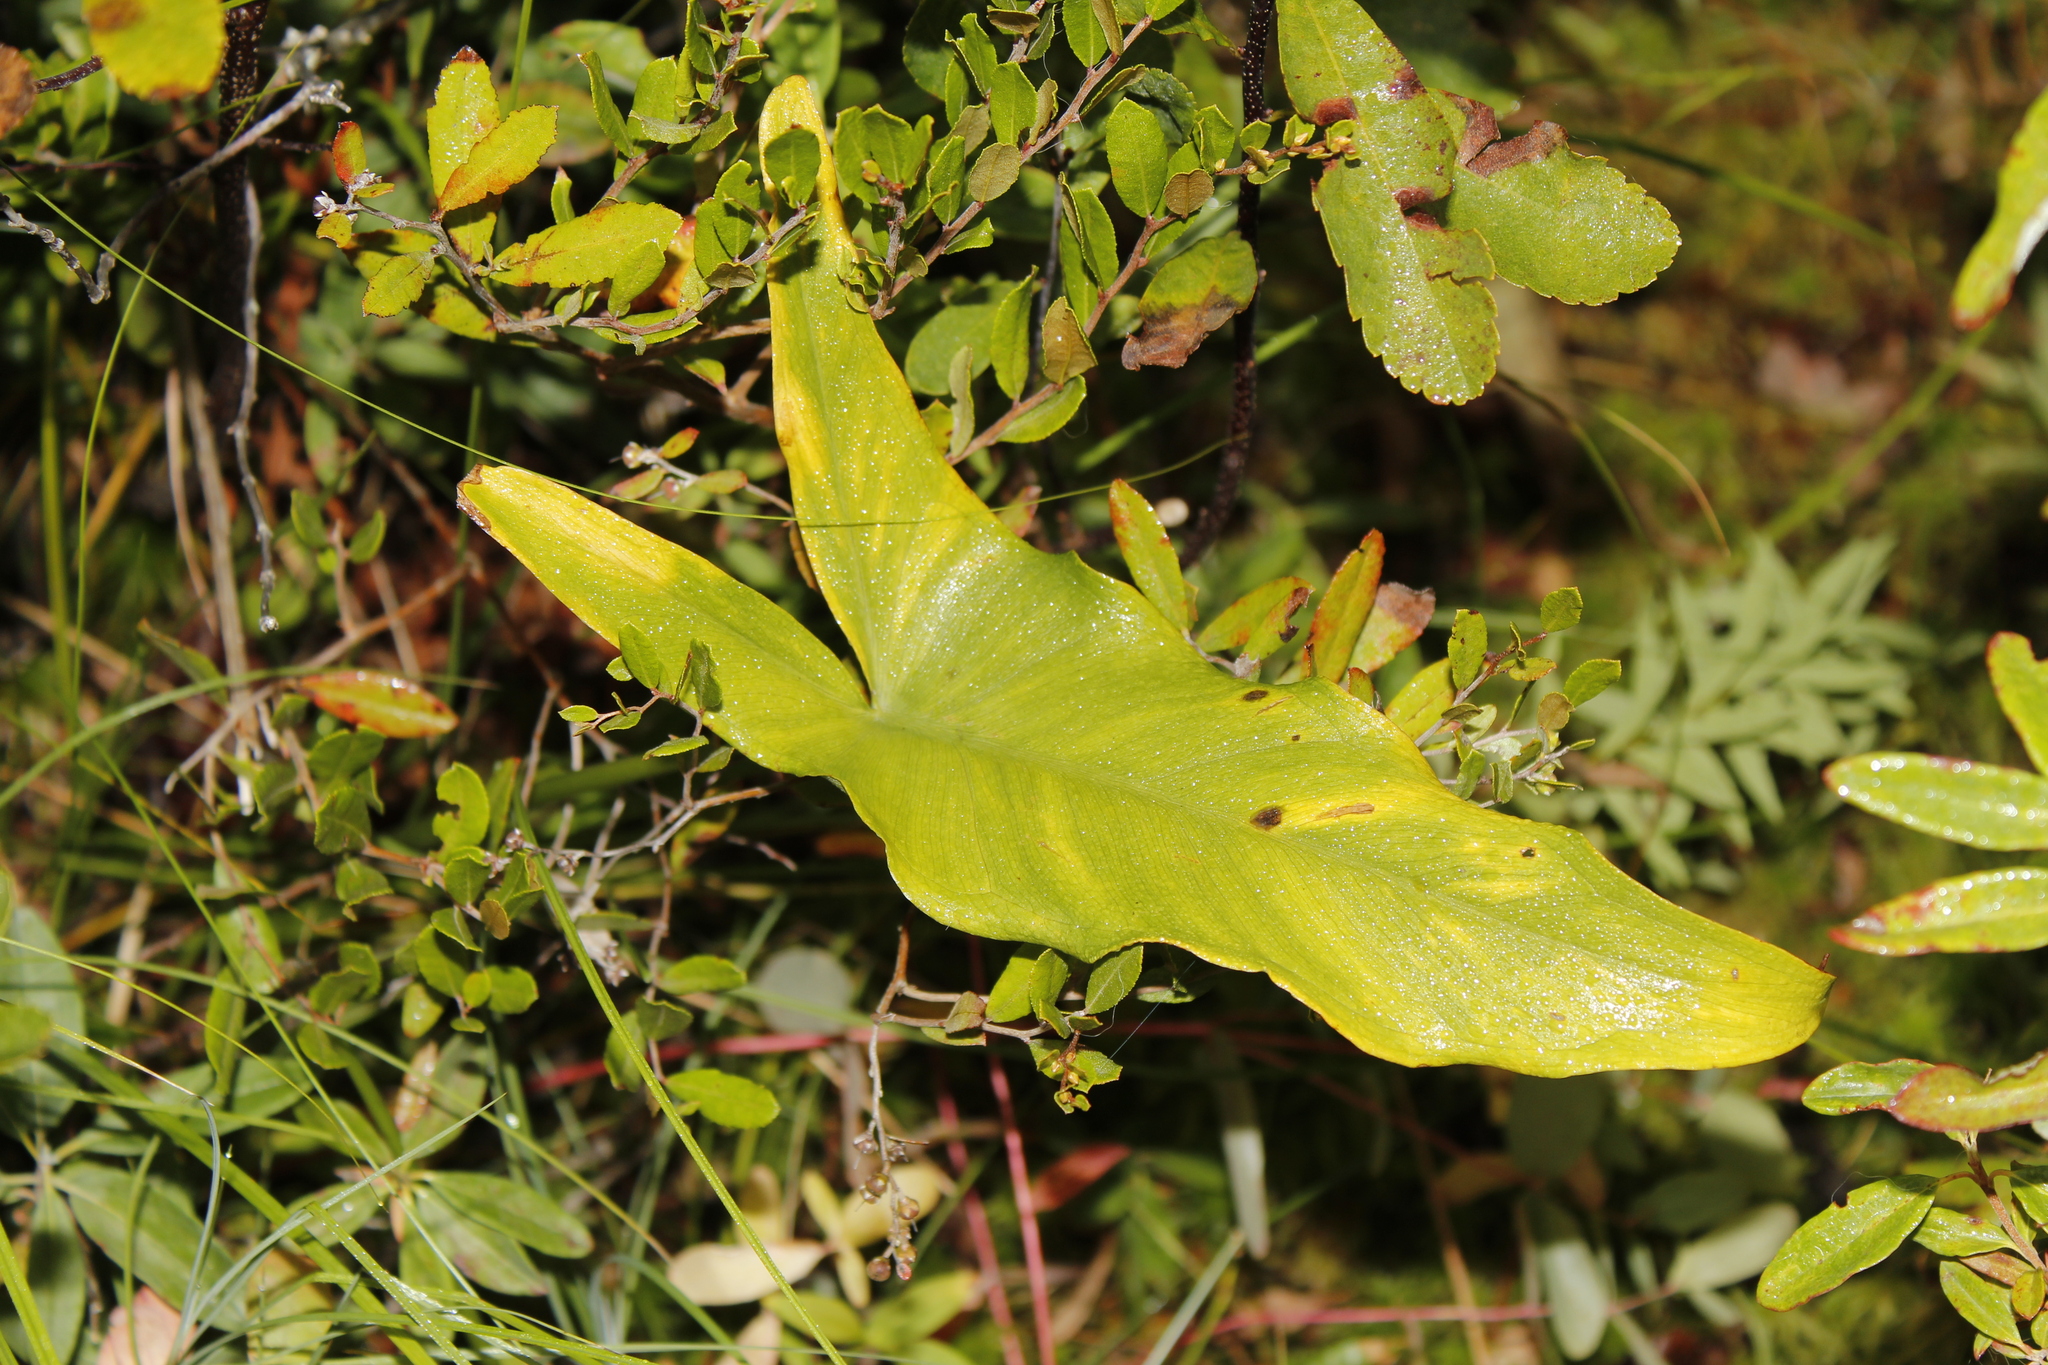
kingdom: Plantae
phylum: Tracheophyta
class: Liliopsida
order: Alismatales
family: Araceae
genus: Peltandra
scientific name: Peltandra virginica
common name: Arrow arum
